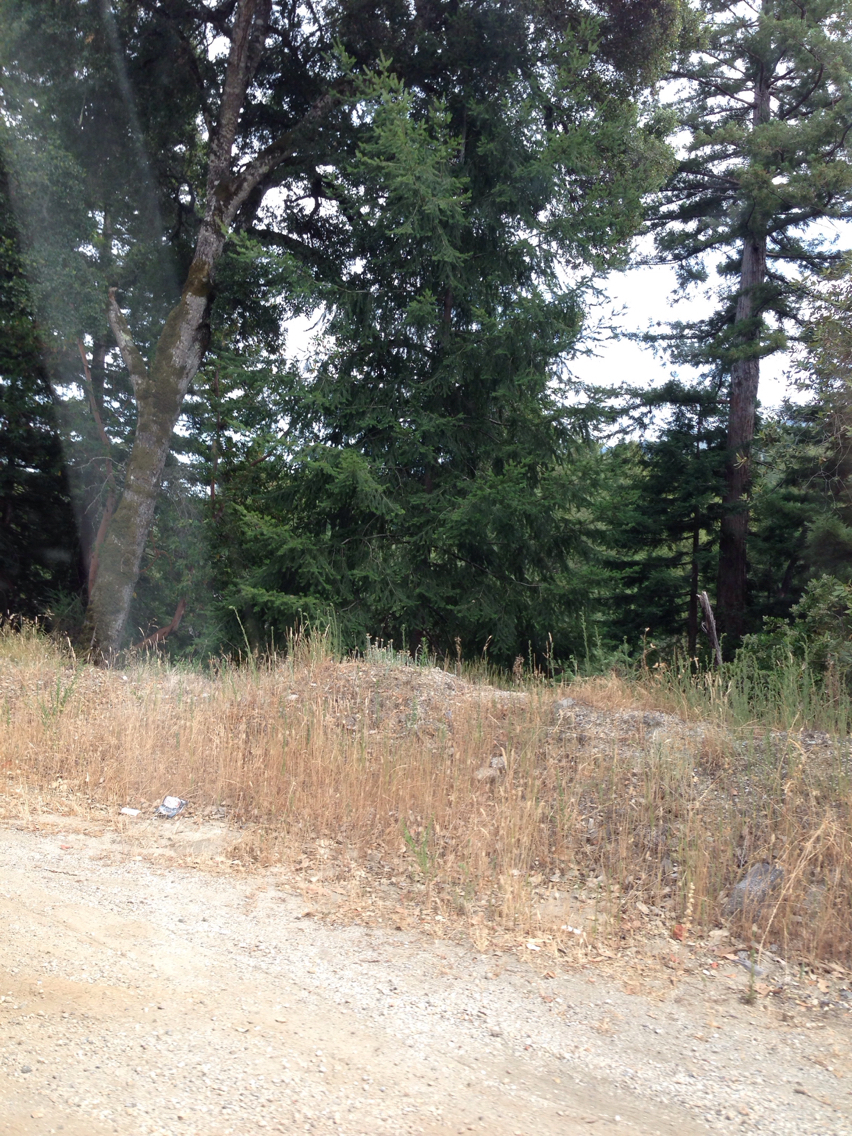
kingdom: Plantae
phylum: Tracheophyta
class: Pinopsida
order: Pinales
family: Pinaceae
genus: Pseudotsuga
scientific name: Pseudotsuga menziesii
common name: Douglas fir
